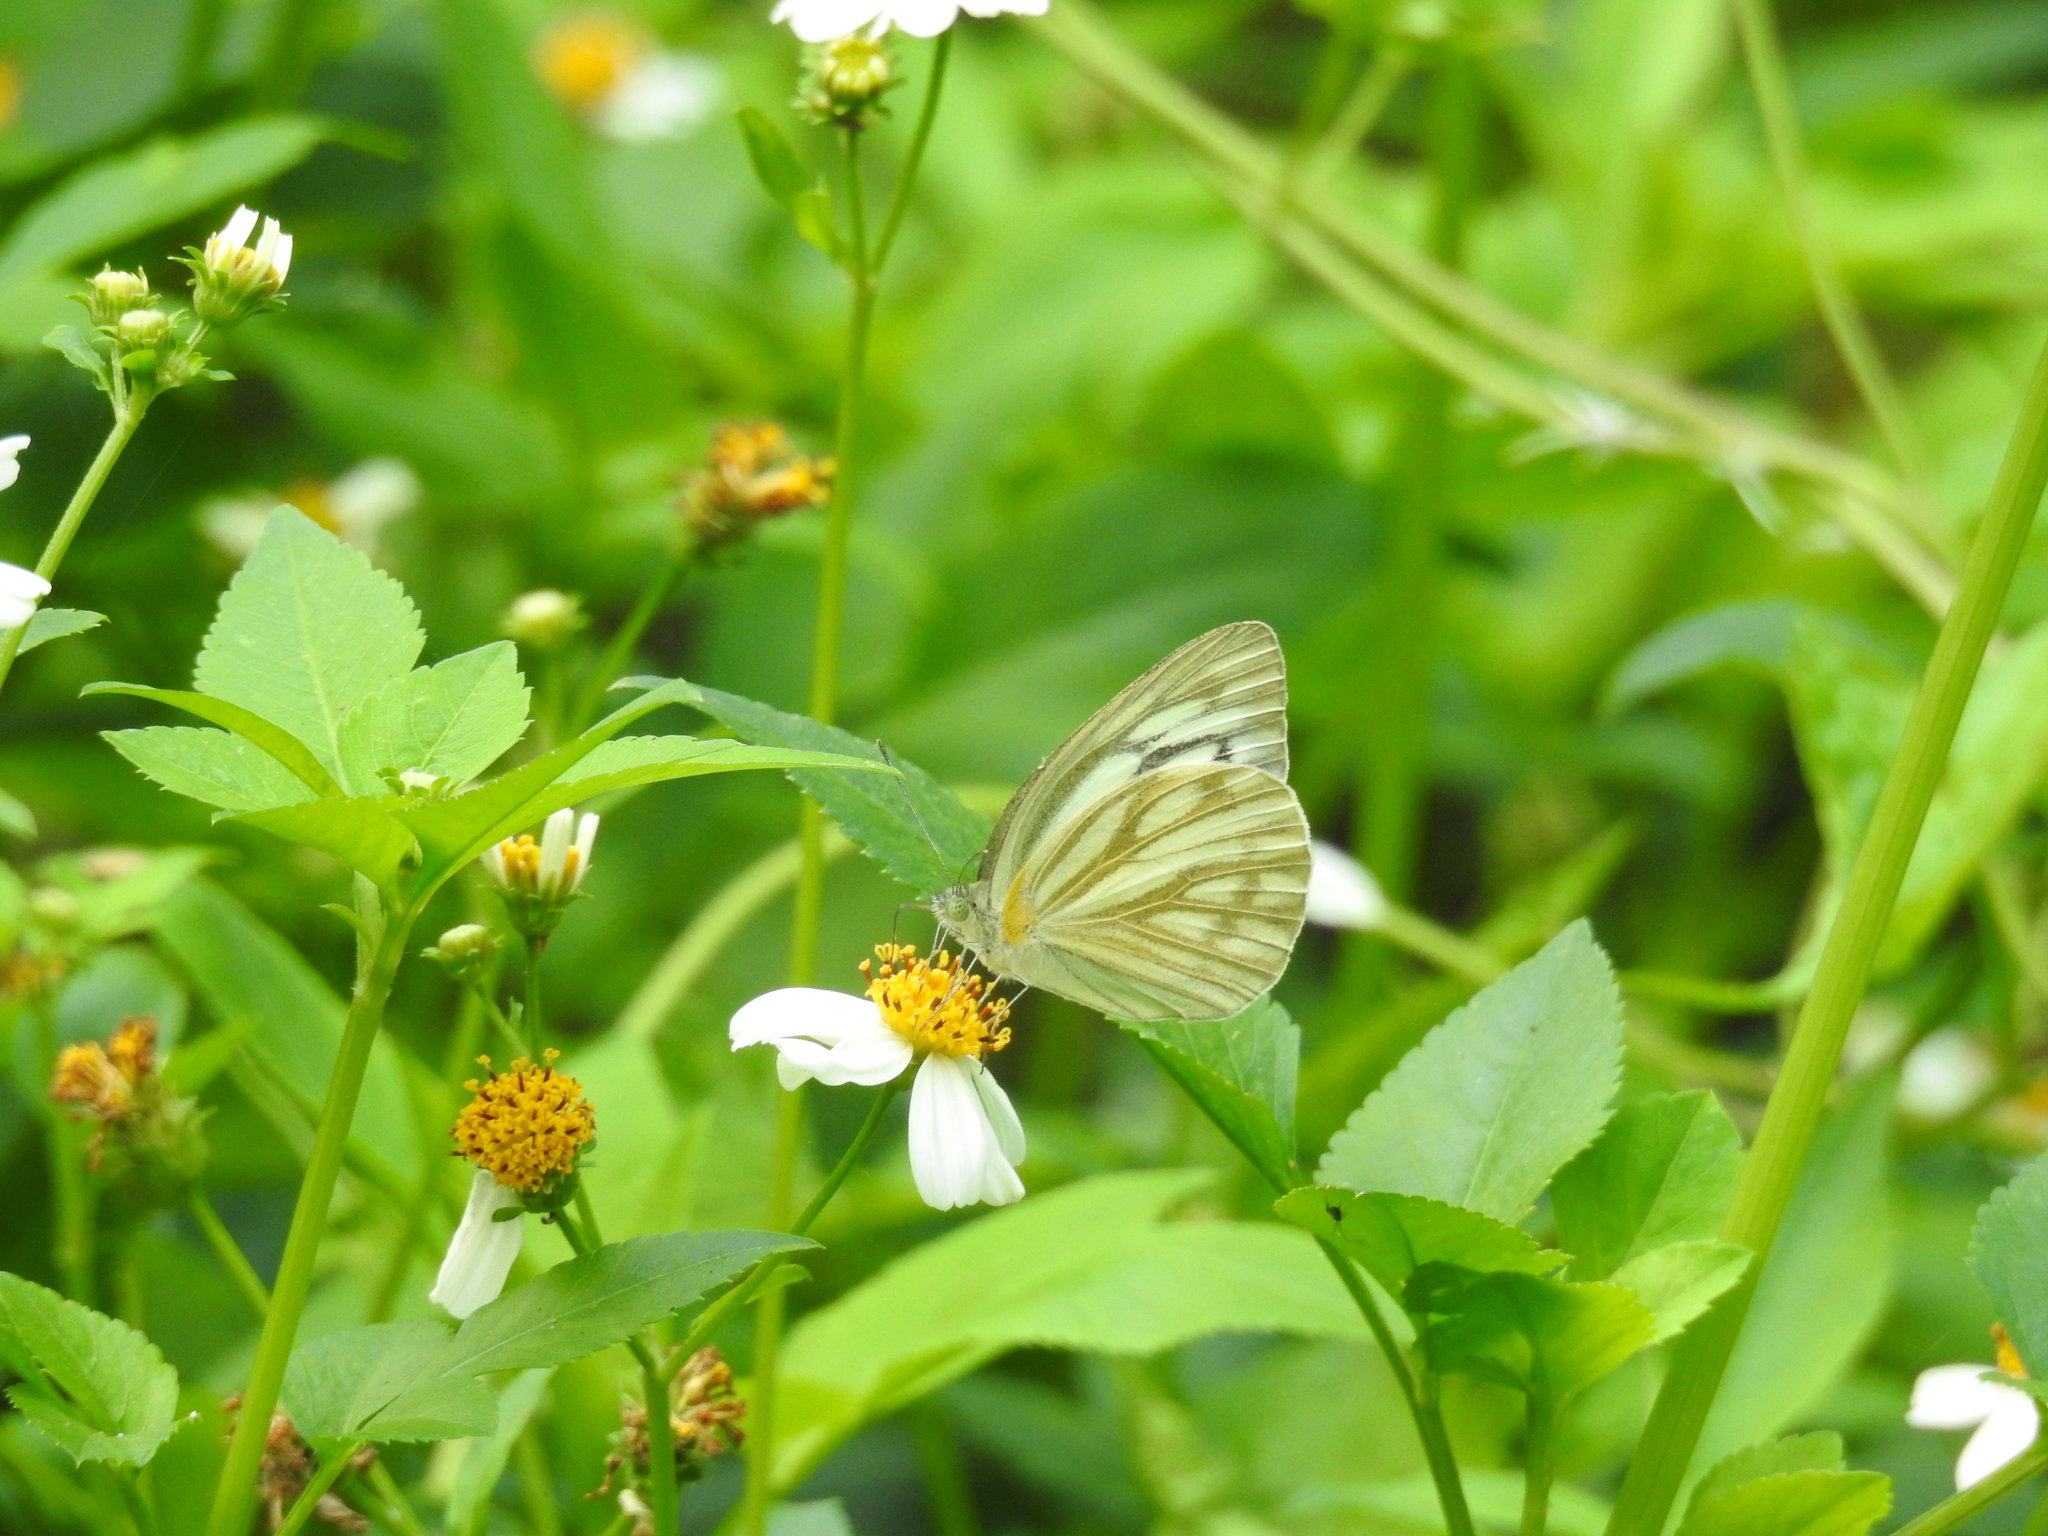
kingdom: Animalia
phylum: Arthropoda
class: Insecta
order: Lepidoptera
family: Pieridae
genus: Cepora
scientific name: Cepora nerissa
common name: Common gull
